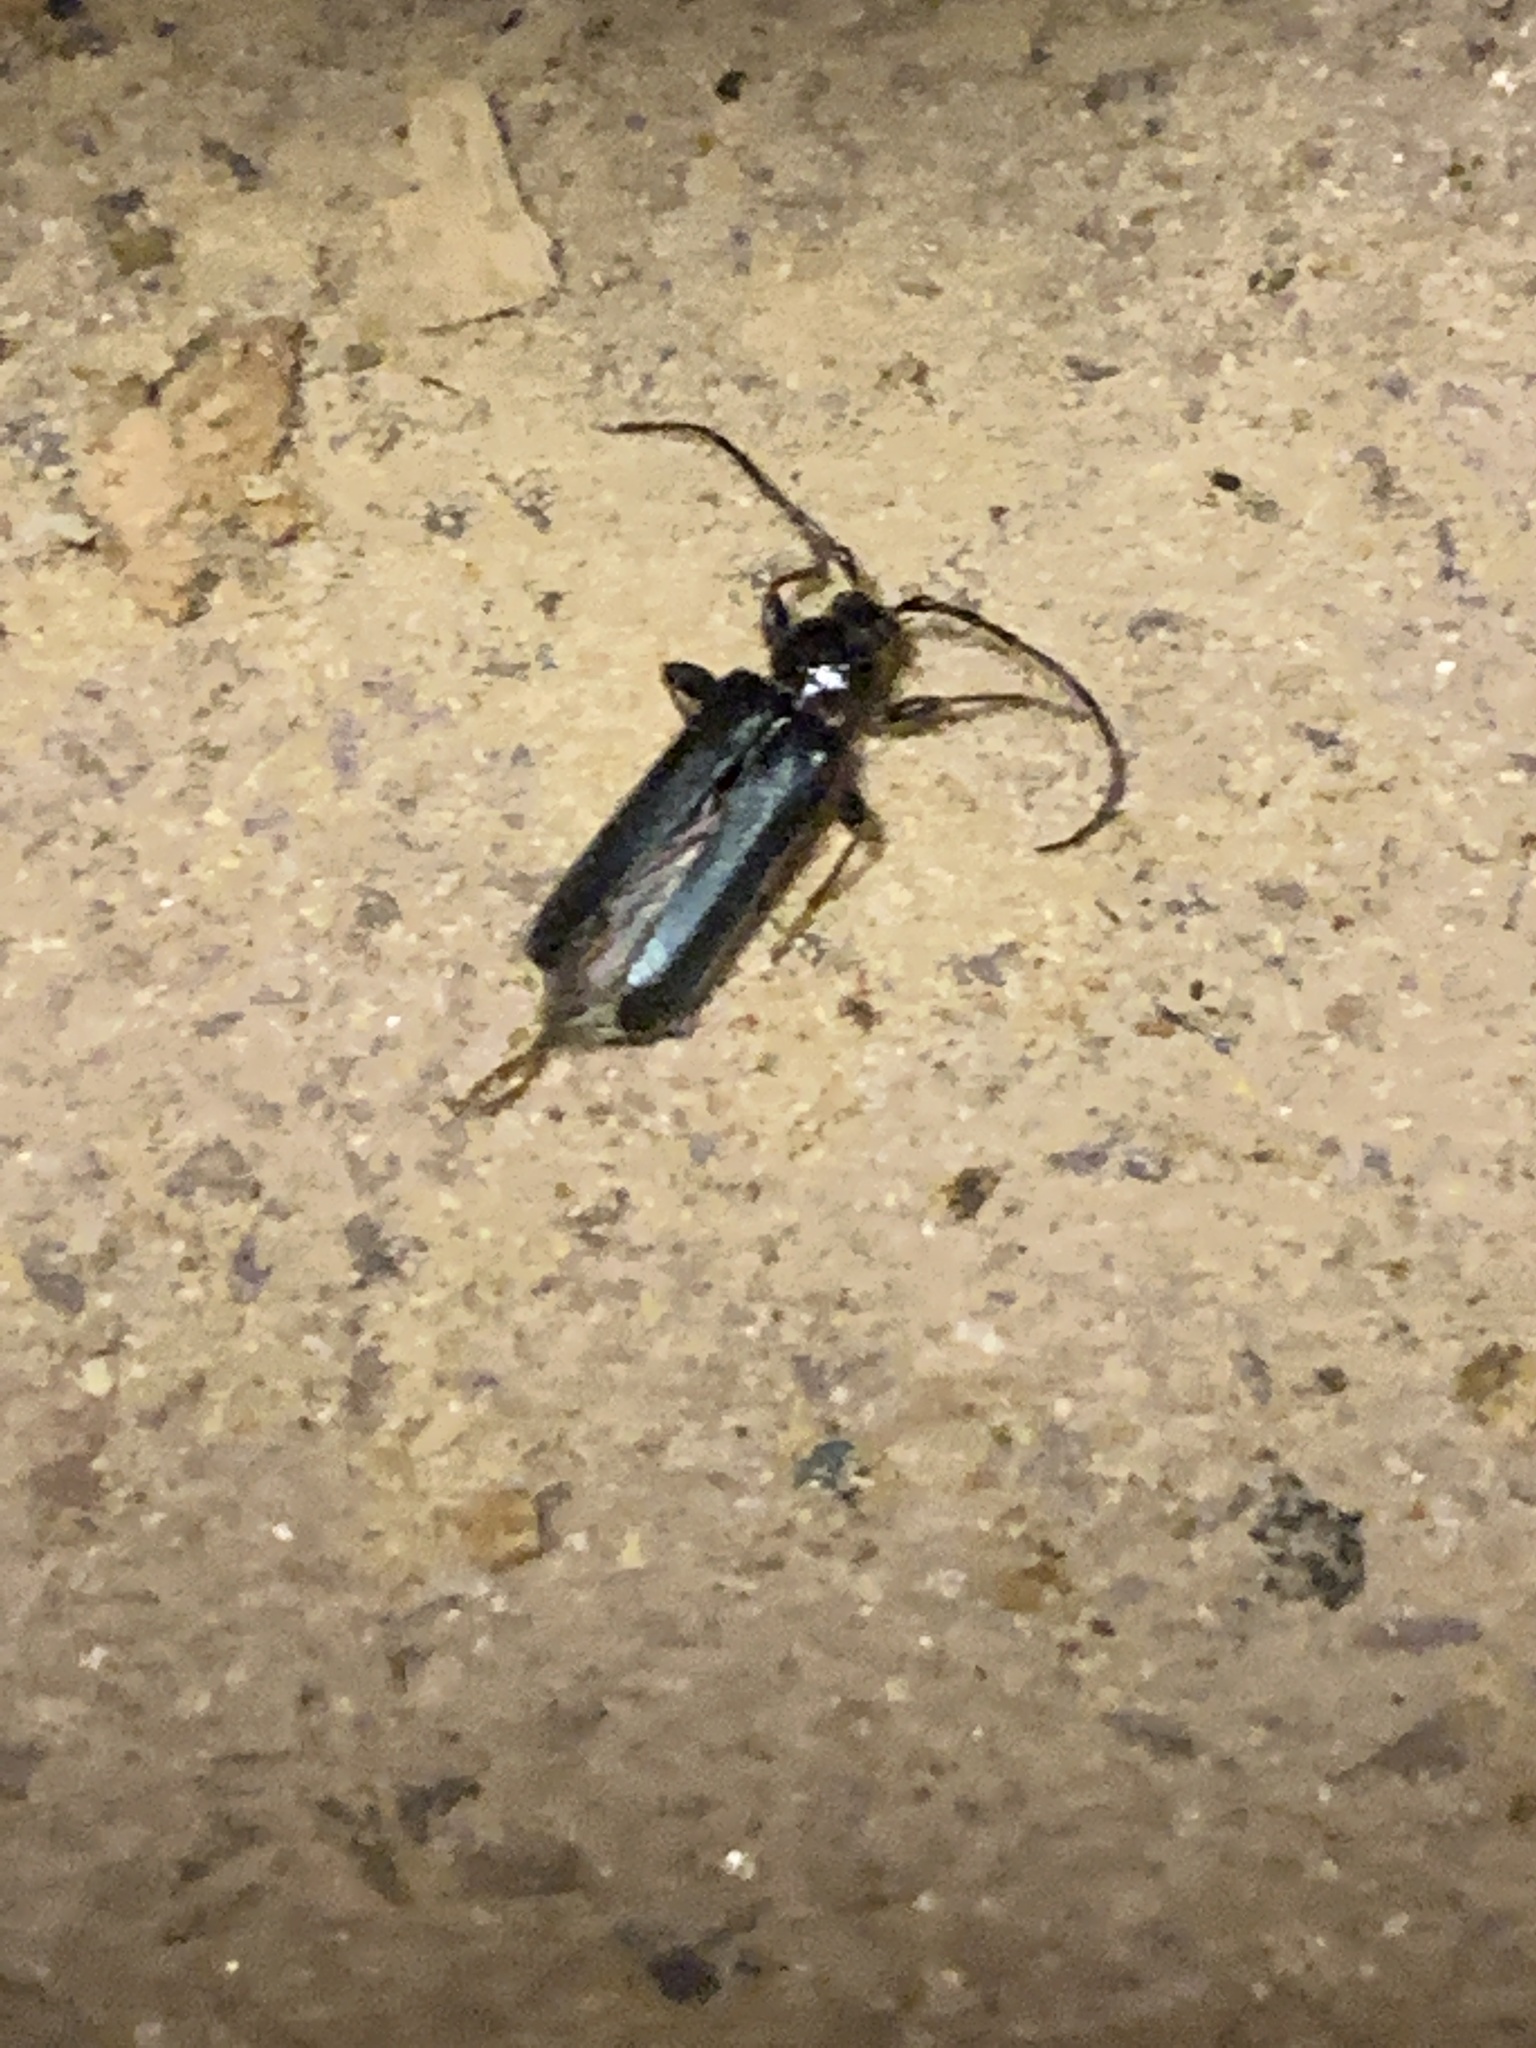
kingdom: Animalia
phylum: Arthropoda
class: Insecta
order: Coleoptera
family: Cerambycidae
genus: Phymatodes
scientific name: Phymatodes testaceus
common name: Long-horned beetle
